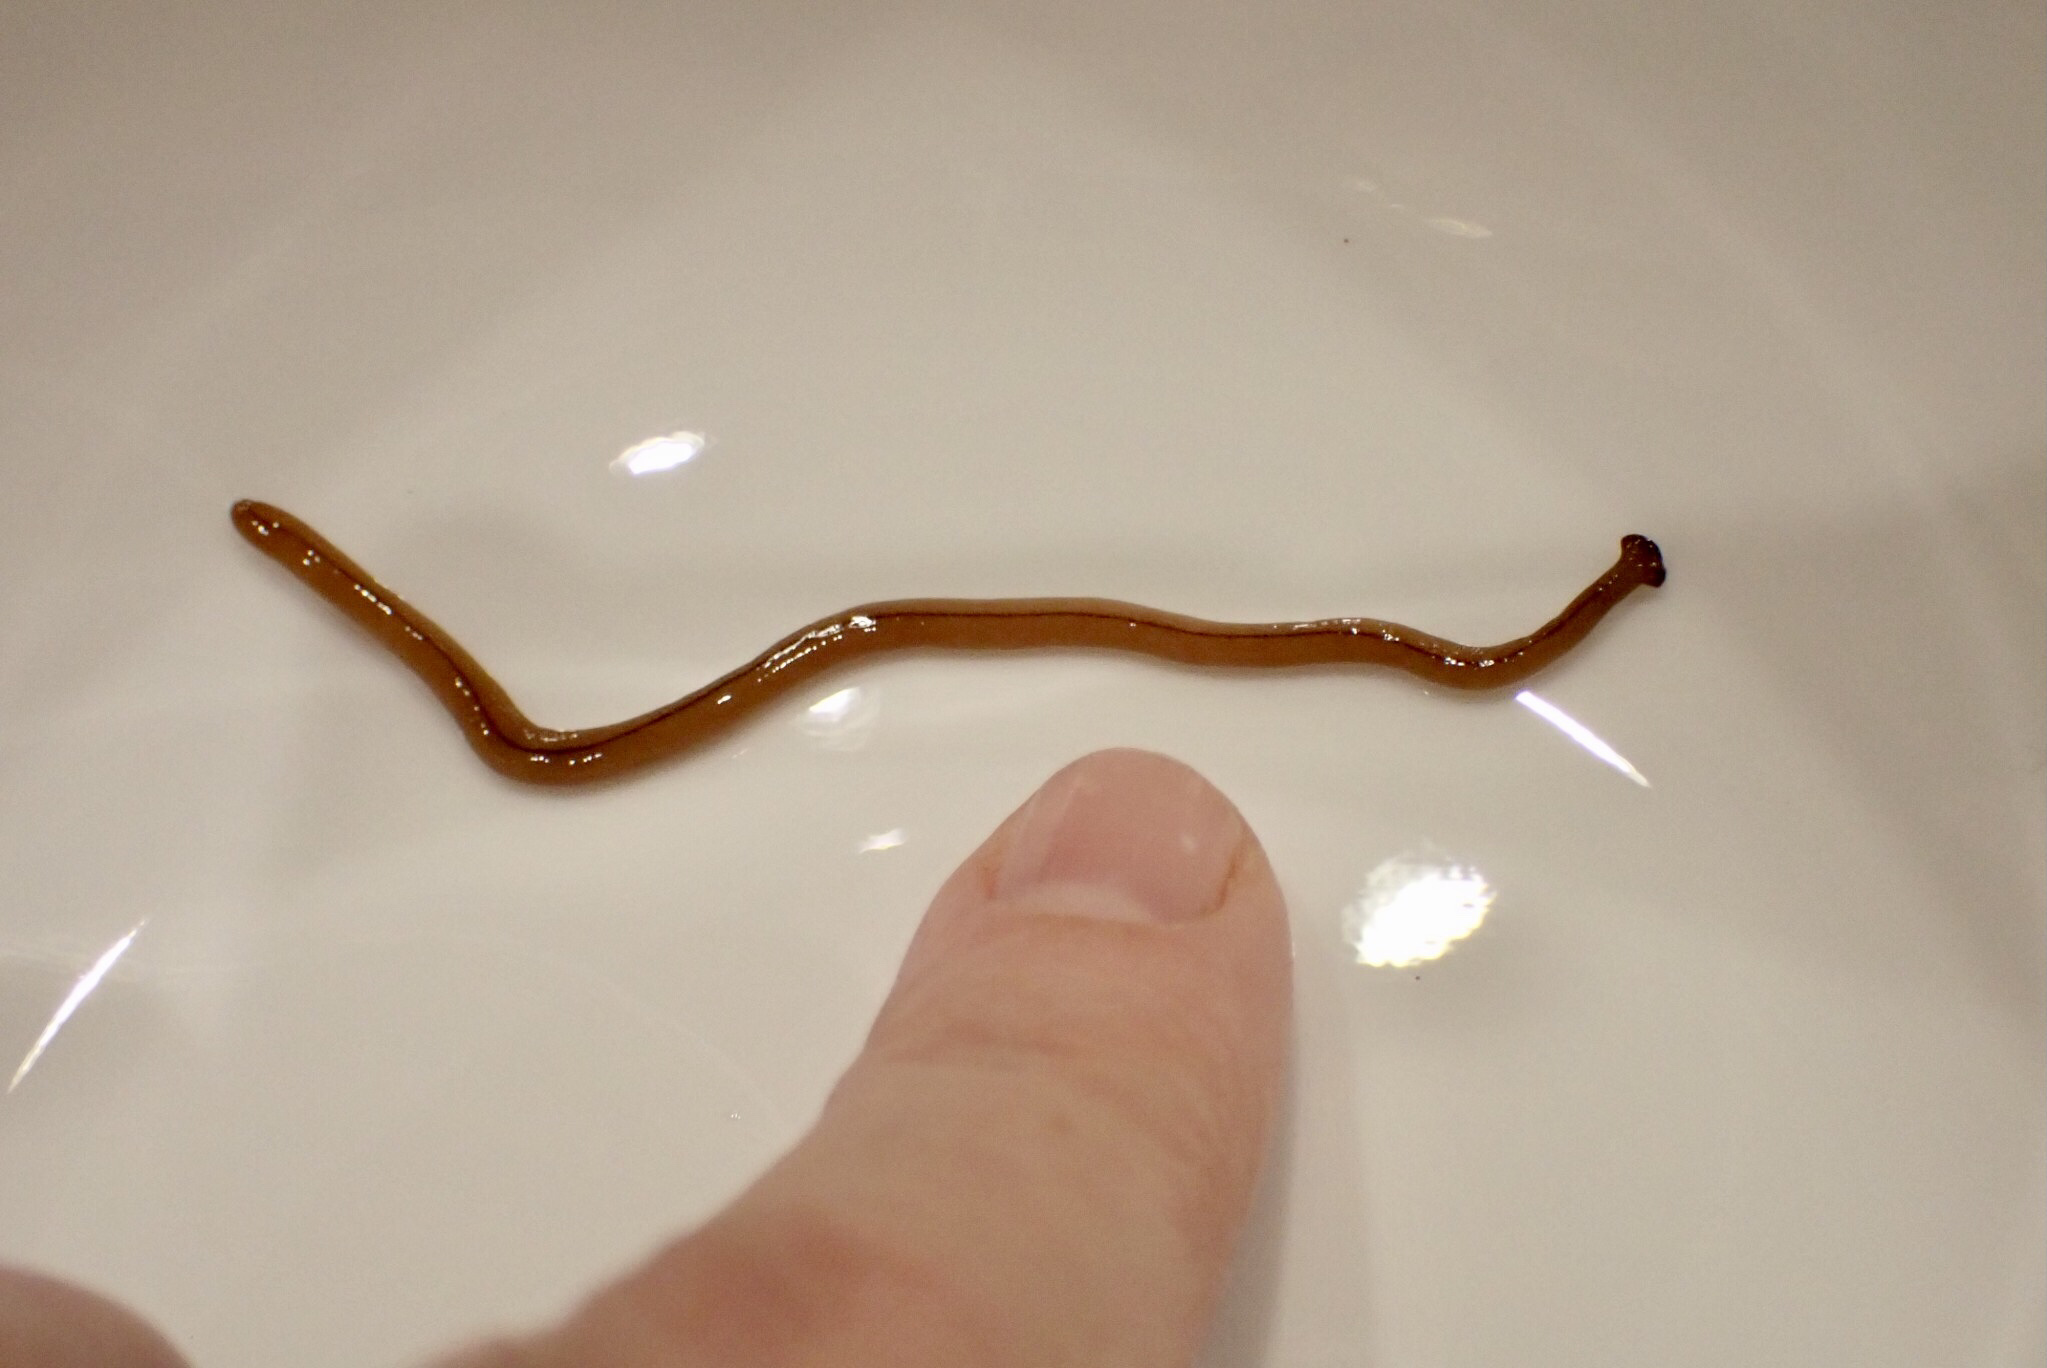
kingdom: Animalia
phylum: Platyhelminthes
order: Tricladida
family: Geoplanidae
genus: Bipalium
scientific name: Bipalium adventitium
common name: Land planarian
